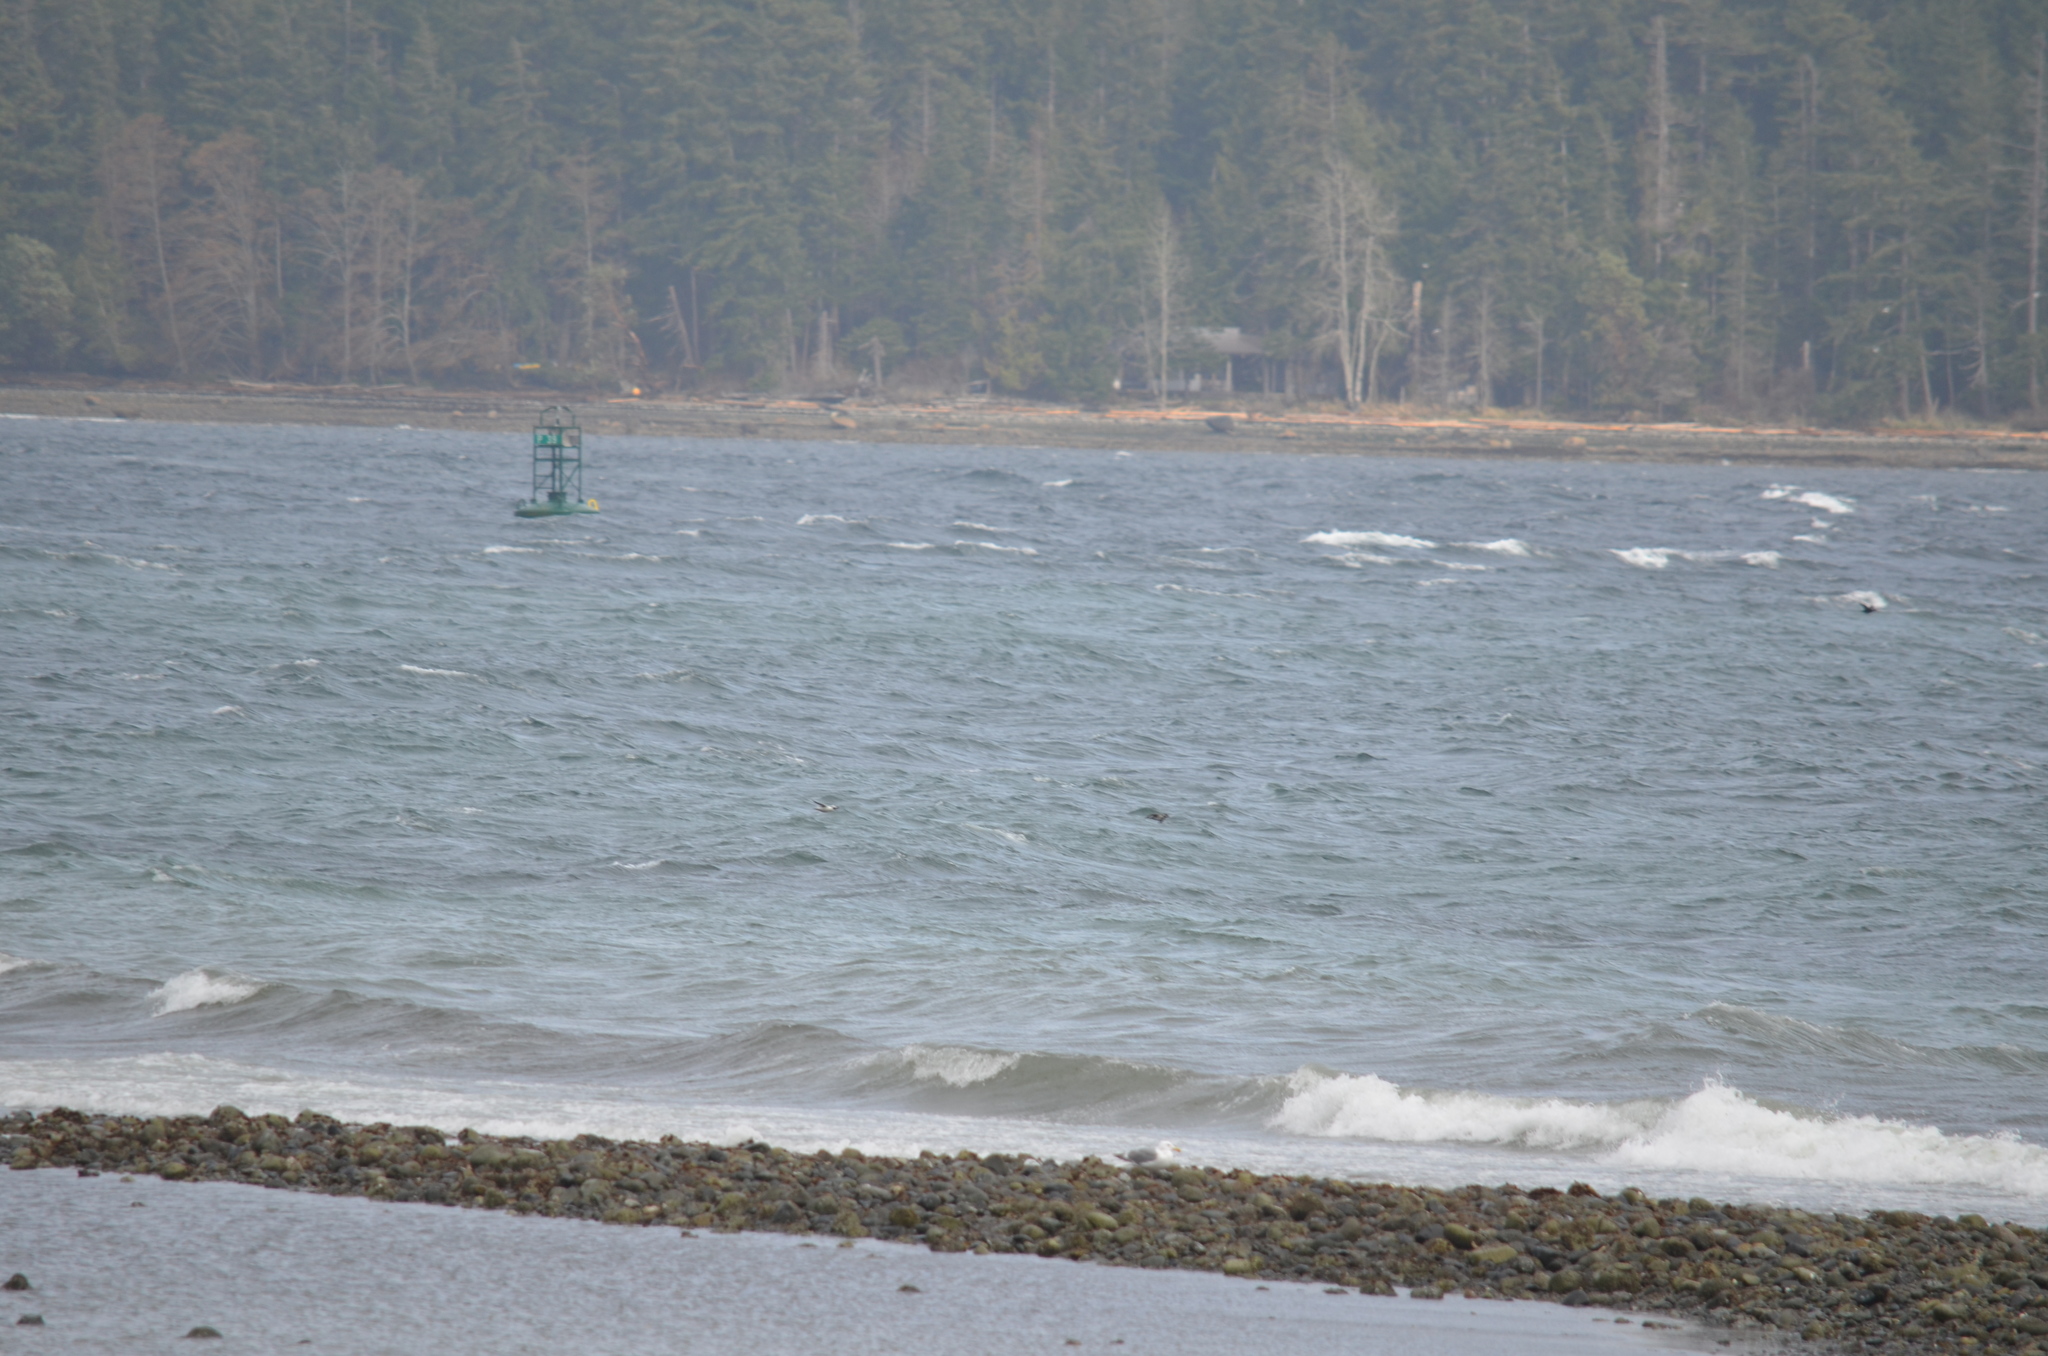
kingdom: Animalia
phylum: Chordata
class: Aves
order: Anseriformes
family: Anatidae
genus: Bucephala
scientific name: Bucephala albeola
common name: Bufflehead
